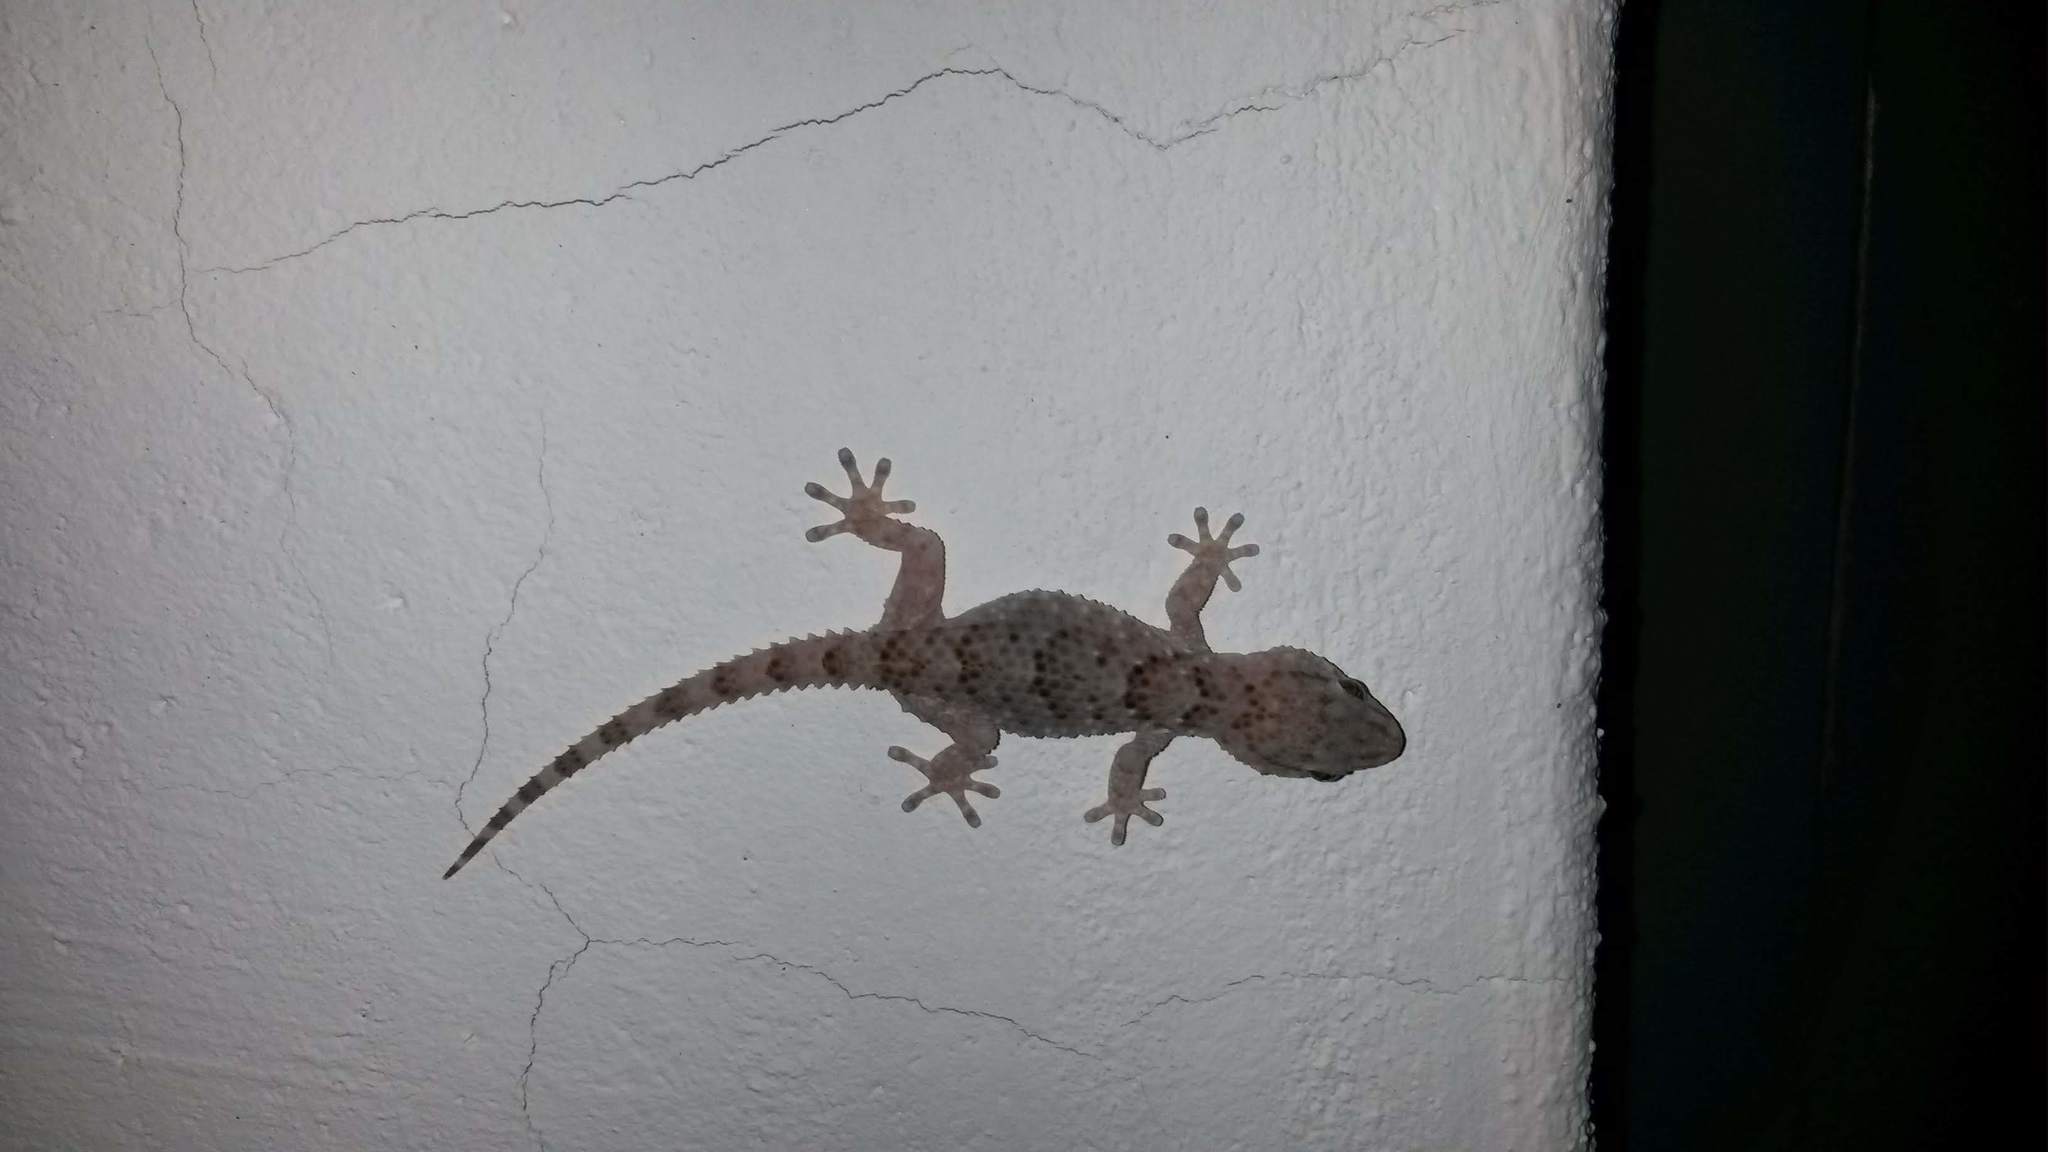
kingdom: Animalia
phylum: Chordata
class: Squamata
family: Gekkonidae
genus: Chondrodactylus
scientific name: Chondrodactylus turneri
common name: Turner’s gecko
